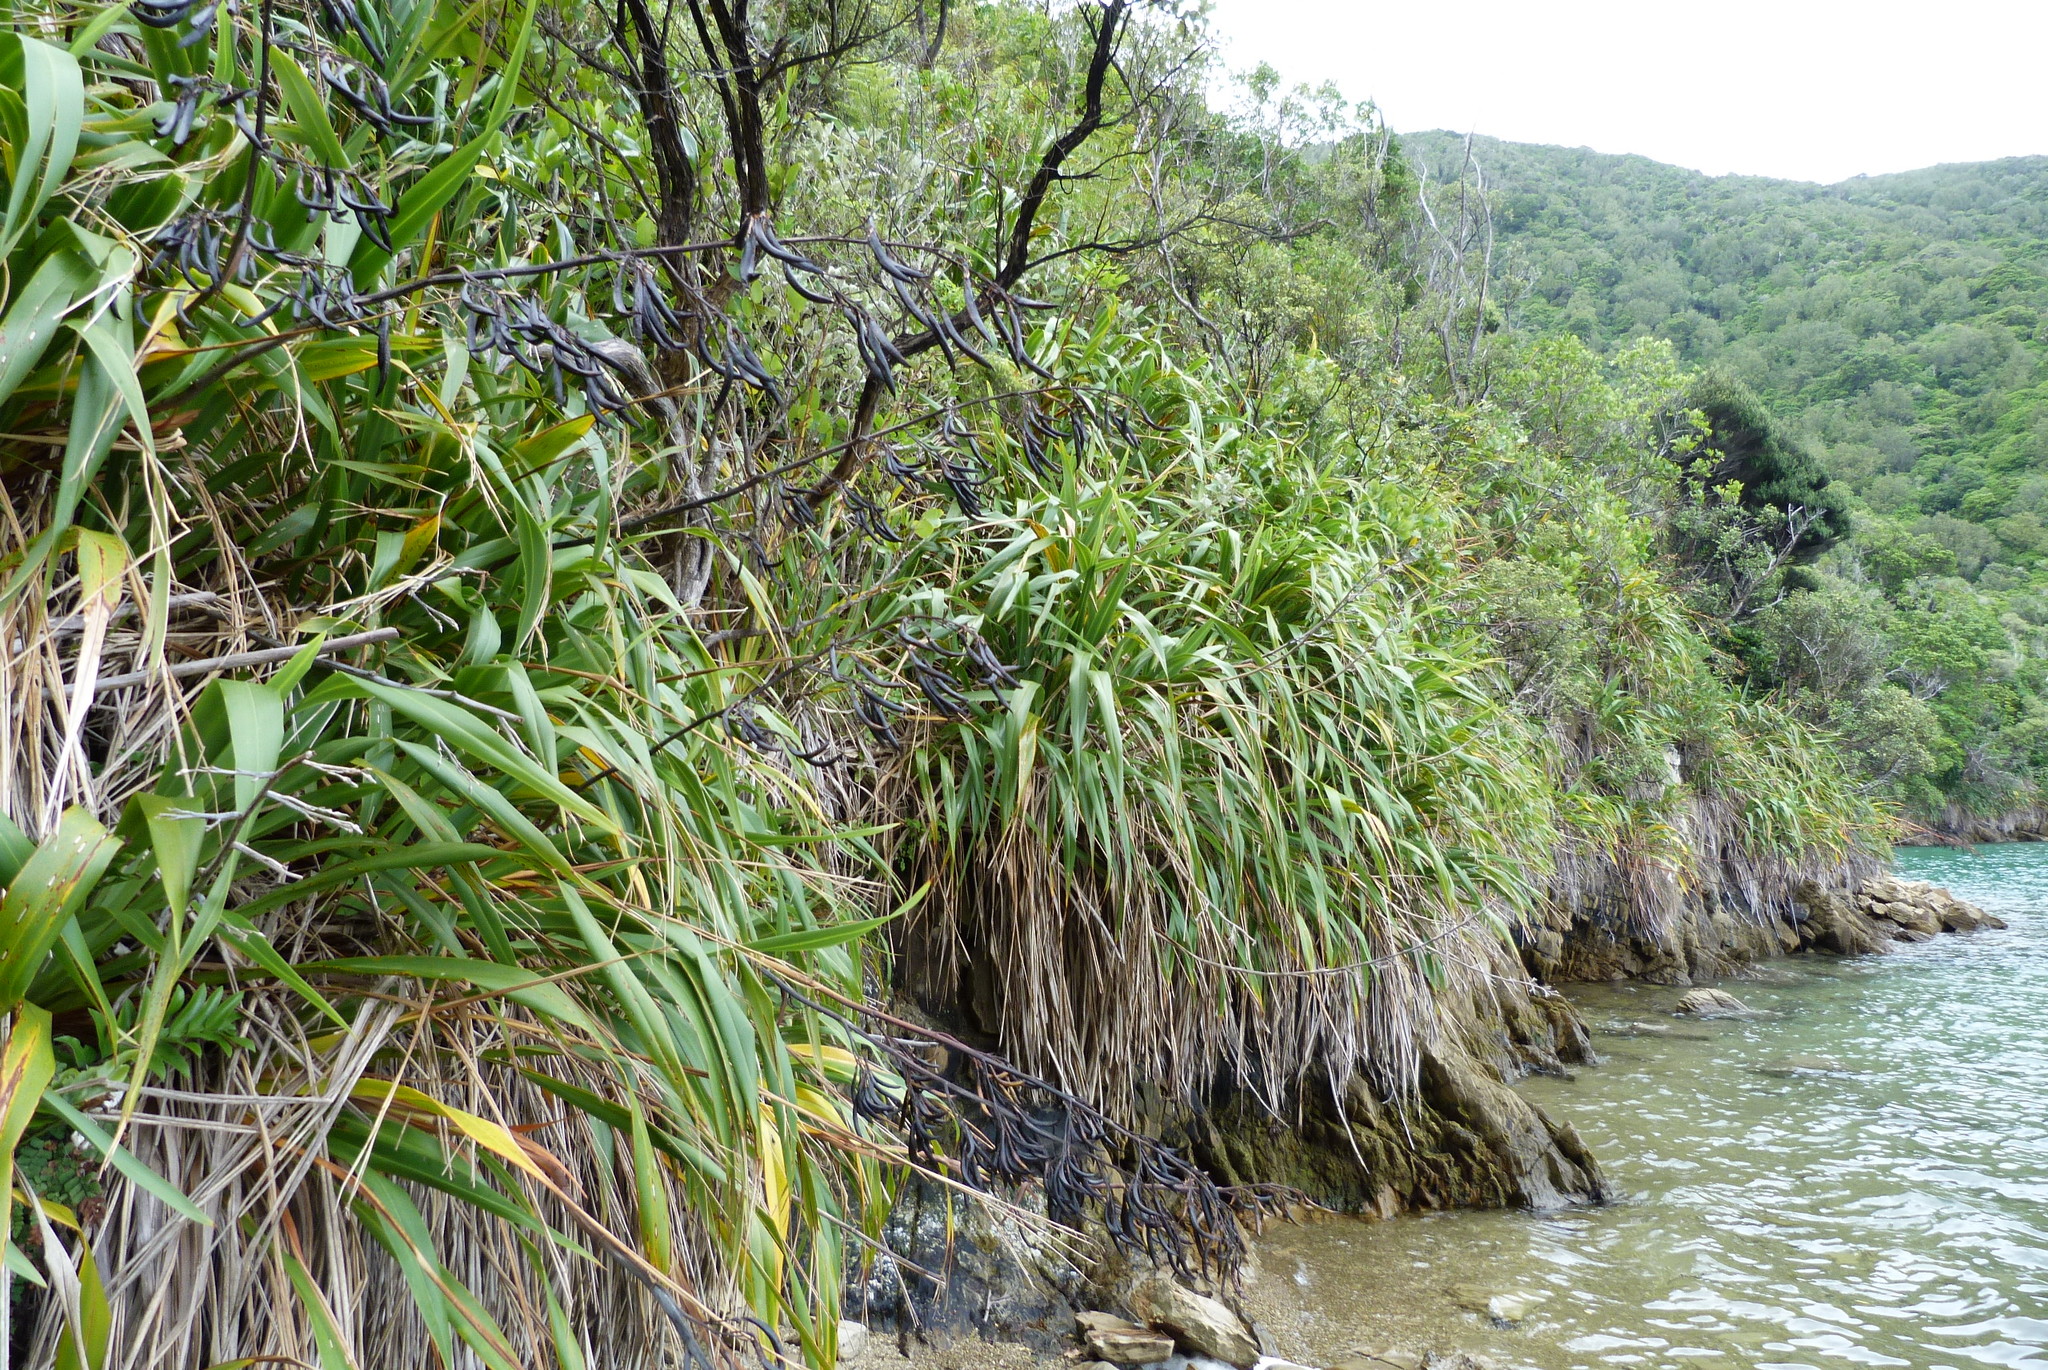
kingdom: Plantae
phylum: Tracheophyta
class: Liliopsida
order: Asparagales
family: Asphodelaceae
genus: Phormium
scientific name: Phormium colensoi
